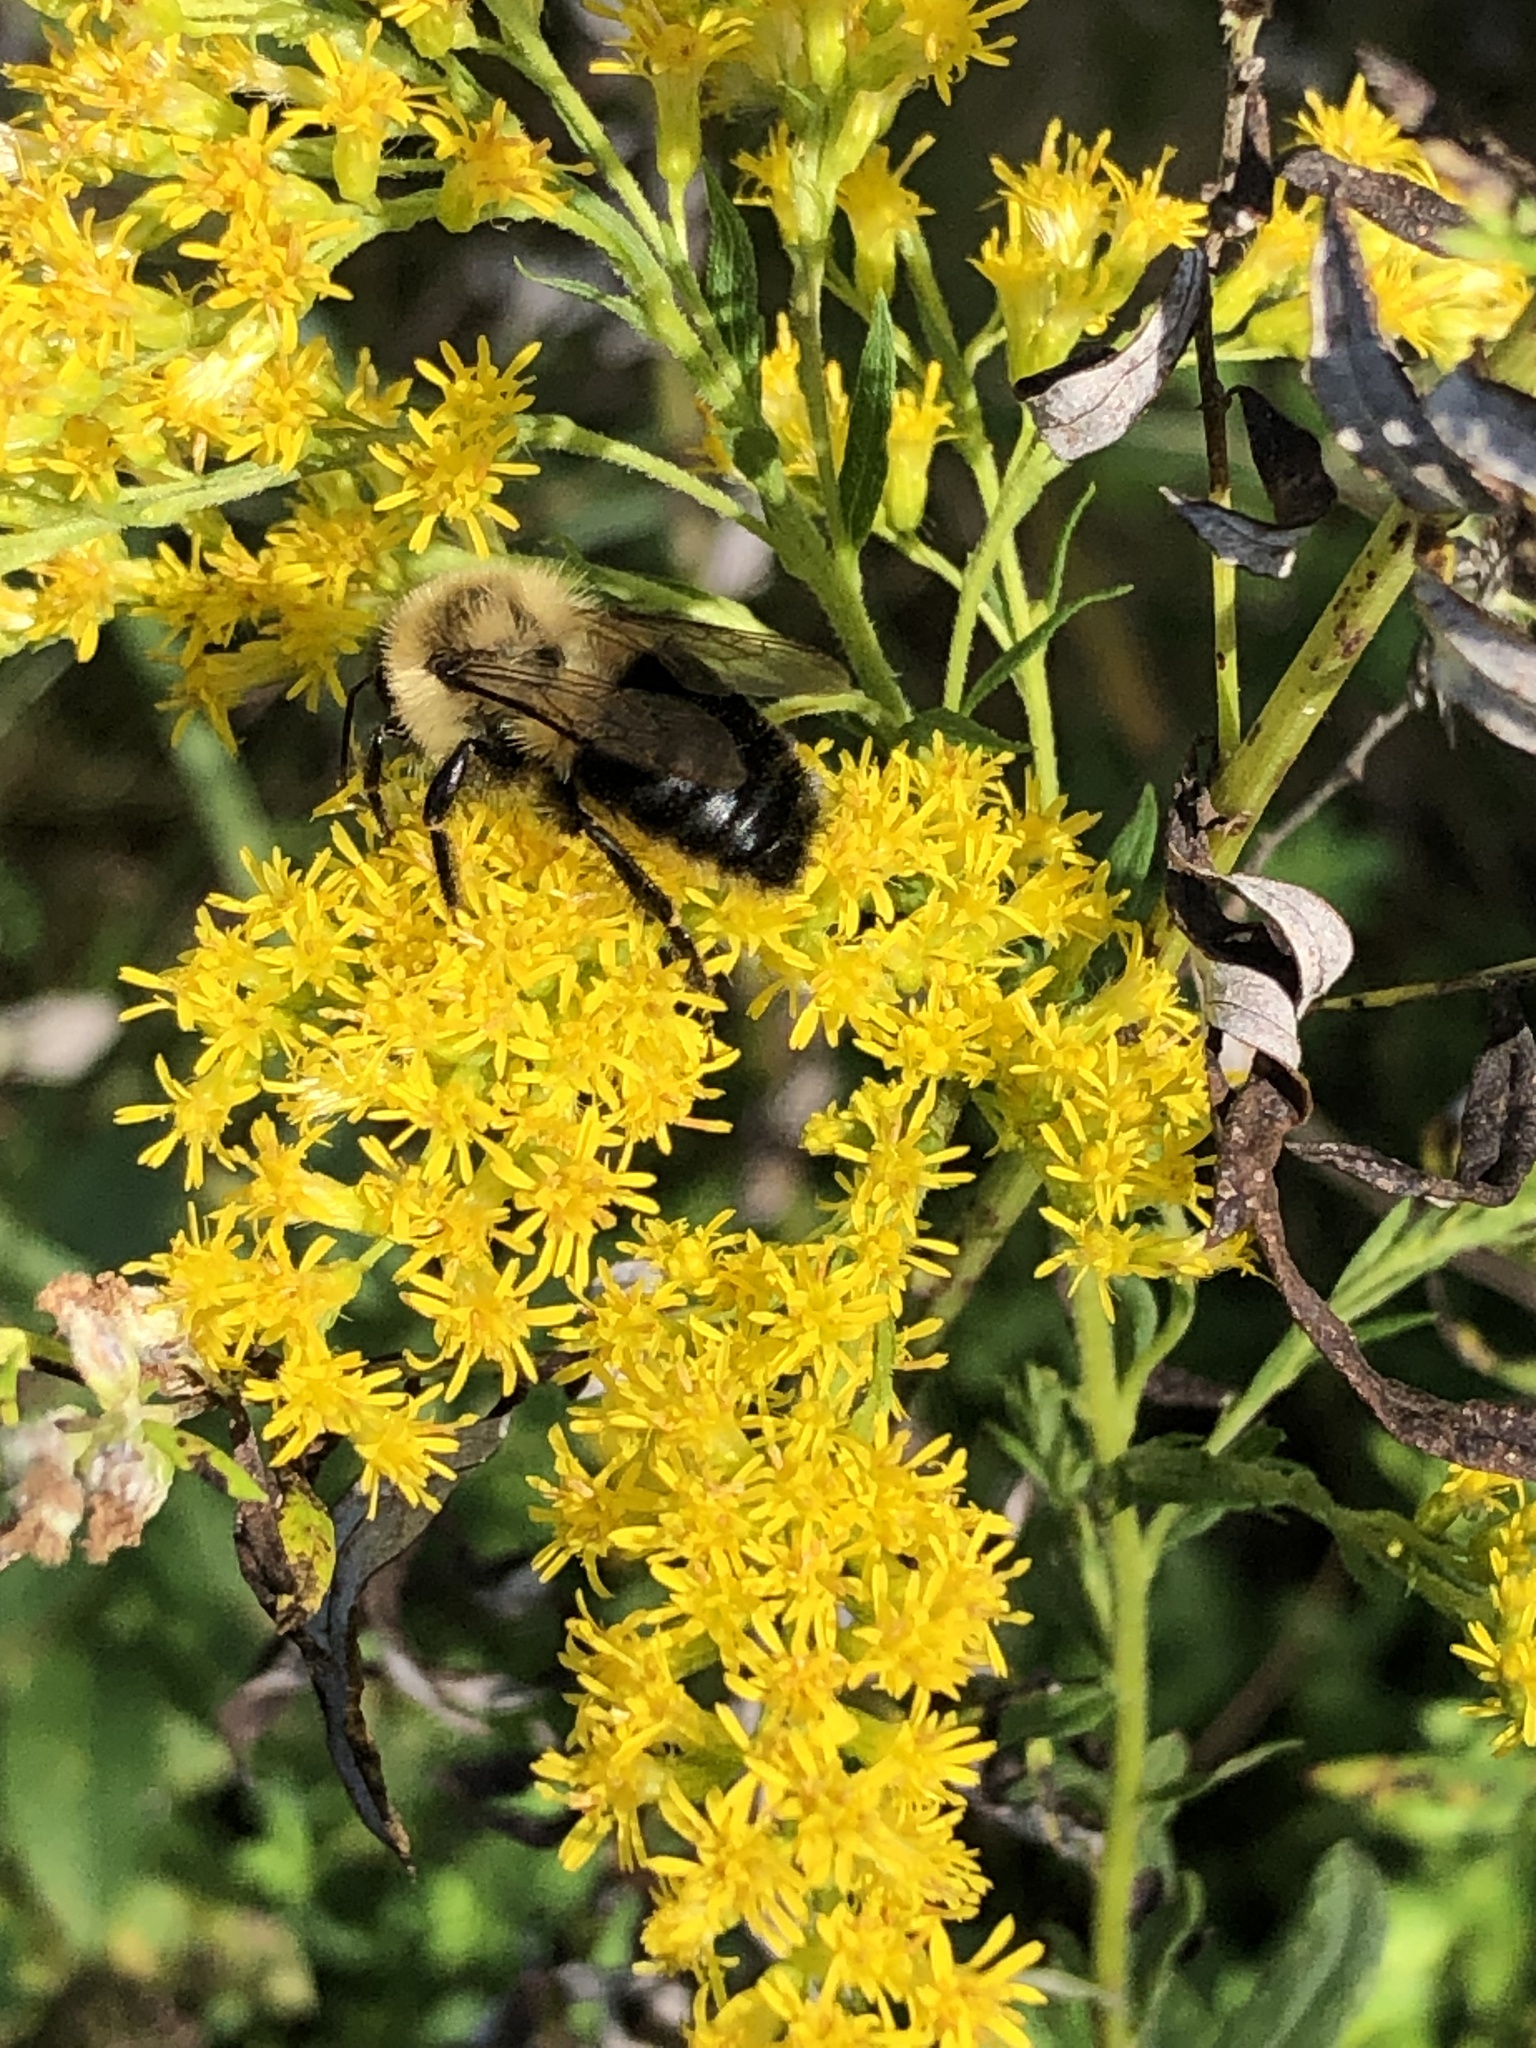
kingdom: Animalia
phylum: Arthropoda
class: Insecta
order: Hymenoptera
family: Apidae
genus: Bombus
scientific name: Bombus impatiens
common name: Common eastern bumble bee
